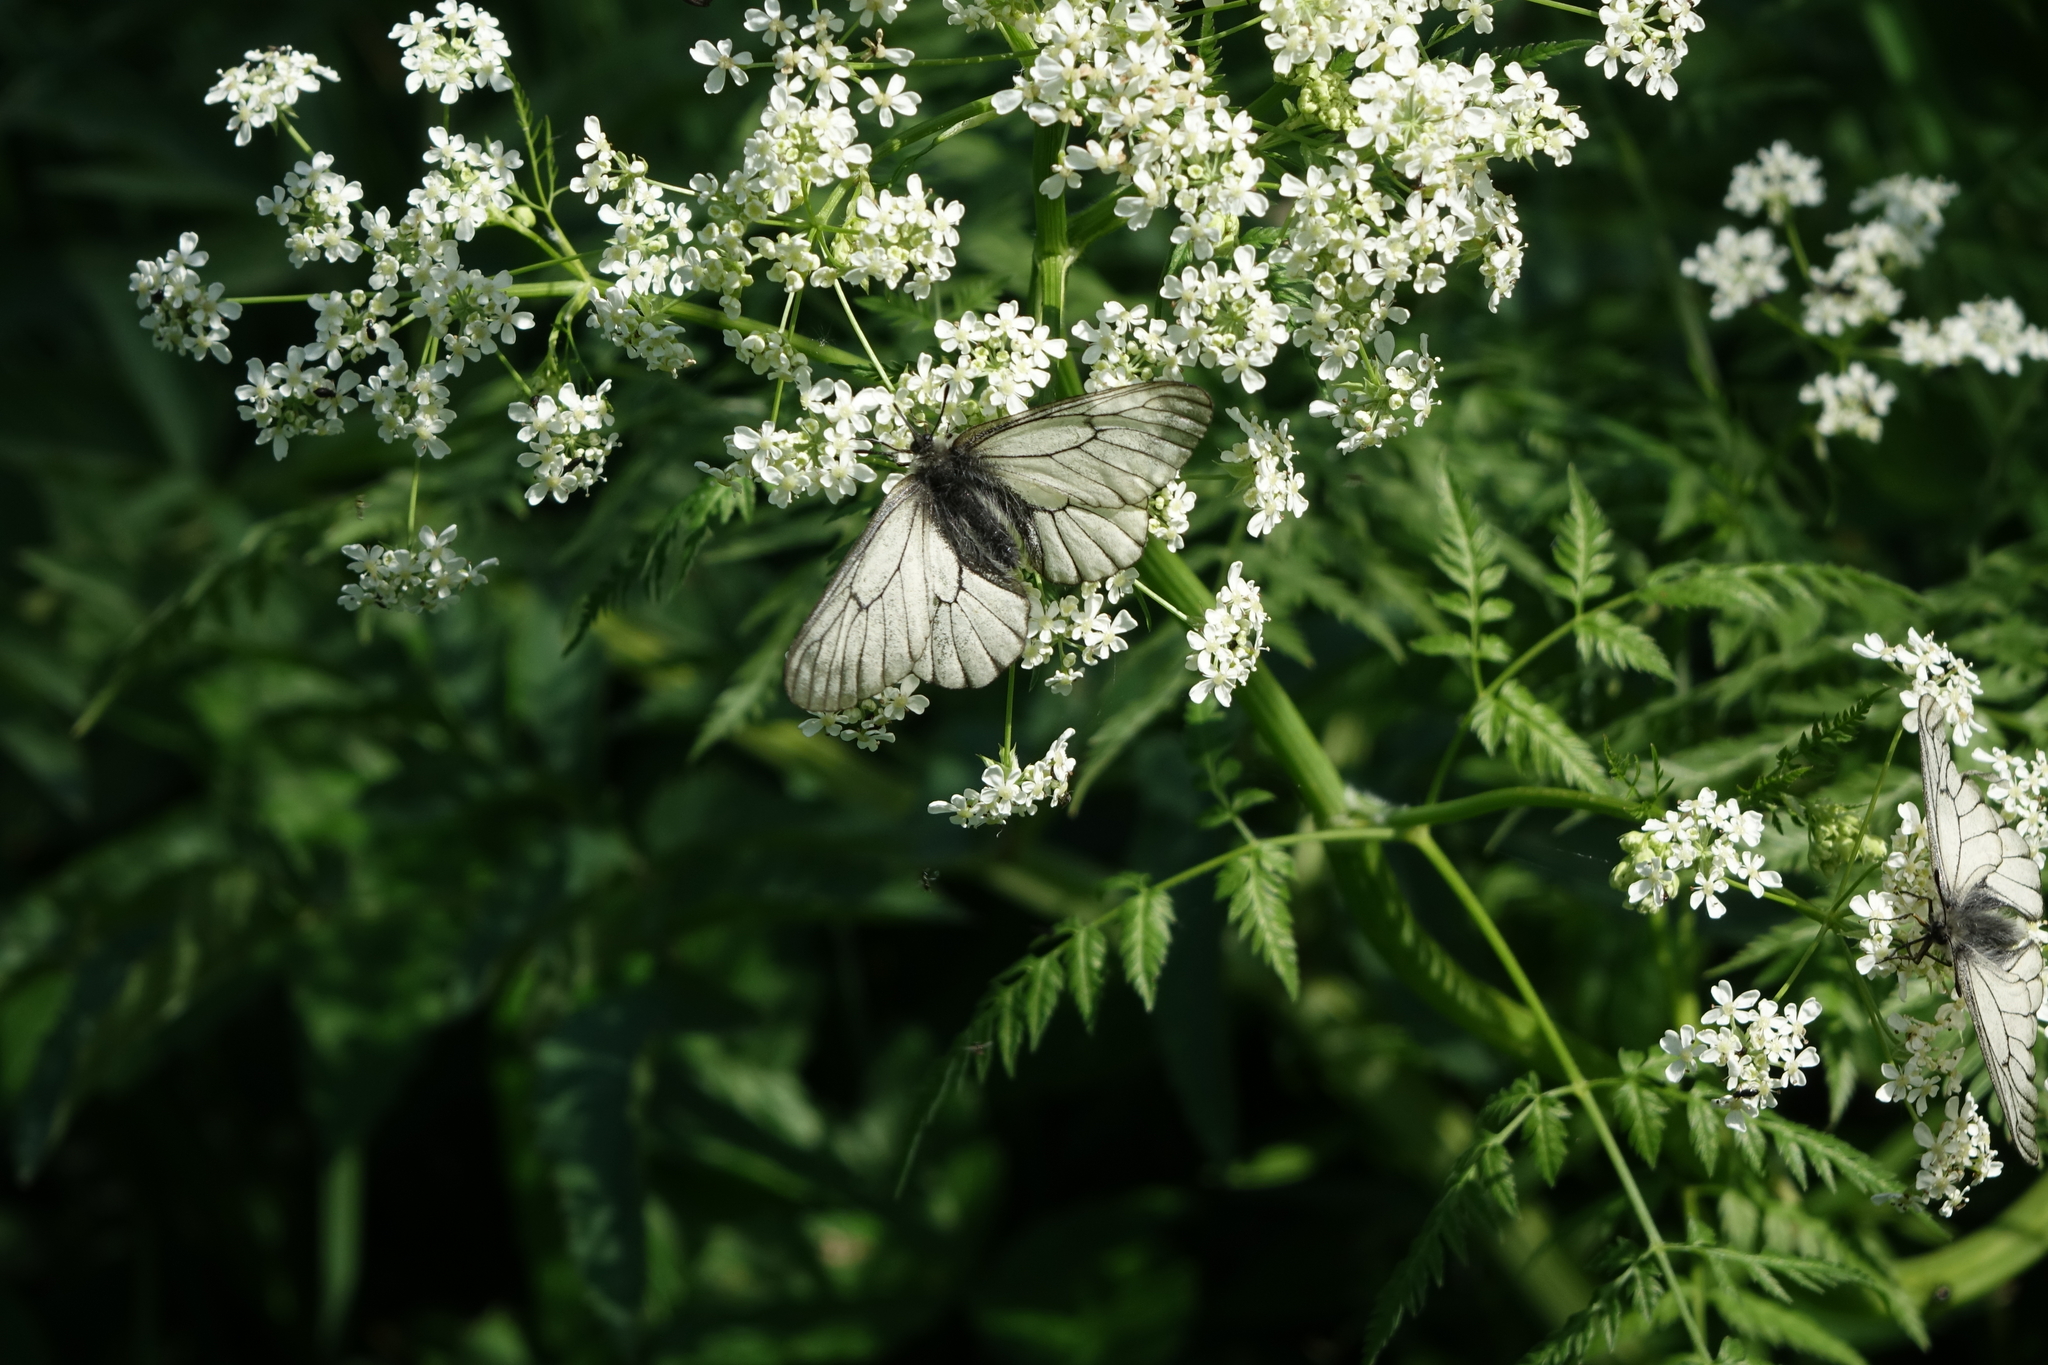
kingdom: Animalia
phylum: Arthropoda
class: Insecta
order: Lepidoptera
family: Papilionidae
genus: Parnassius
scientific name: Parnassius stubbendorfii
